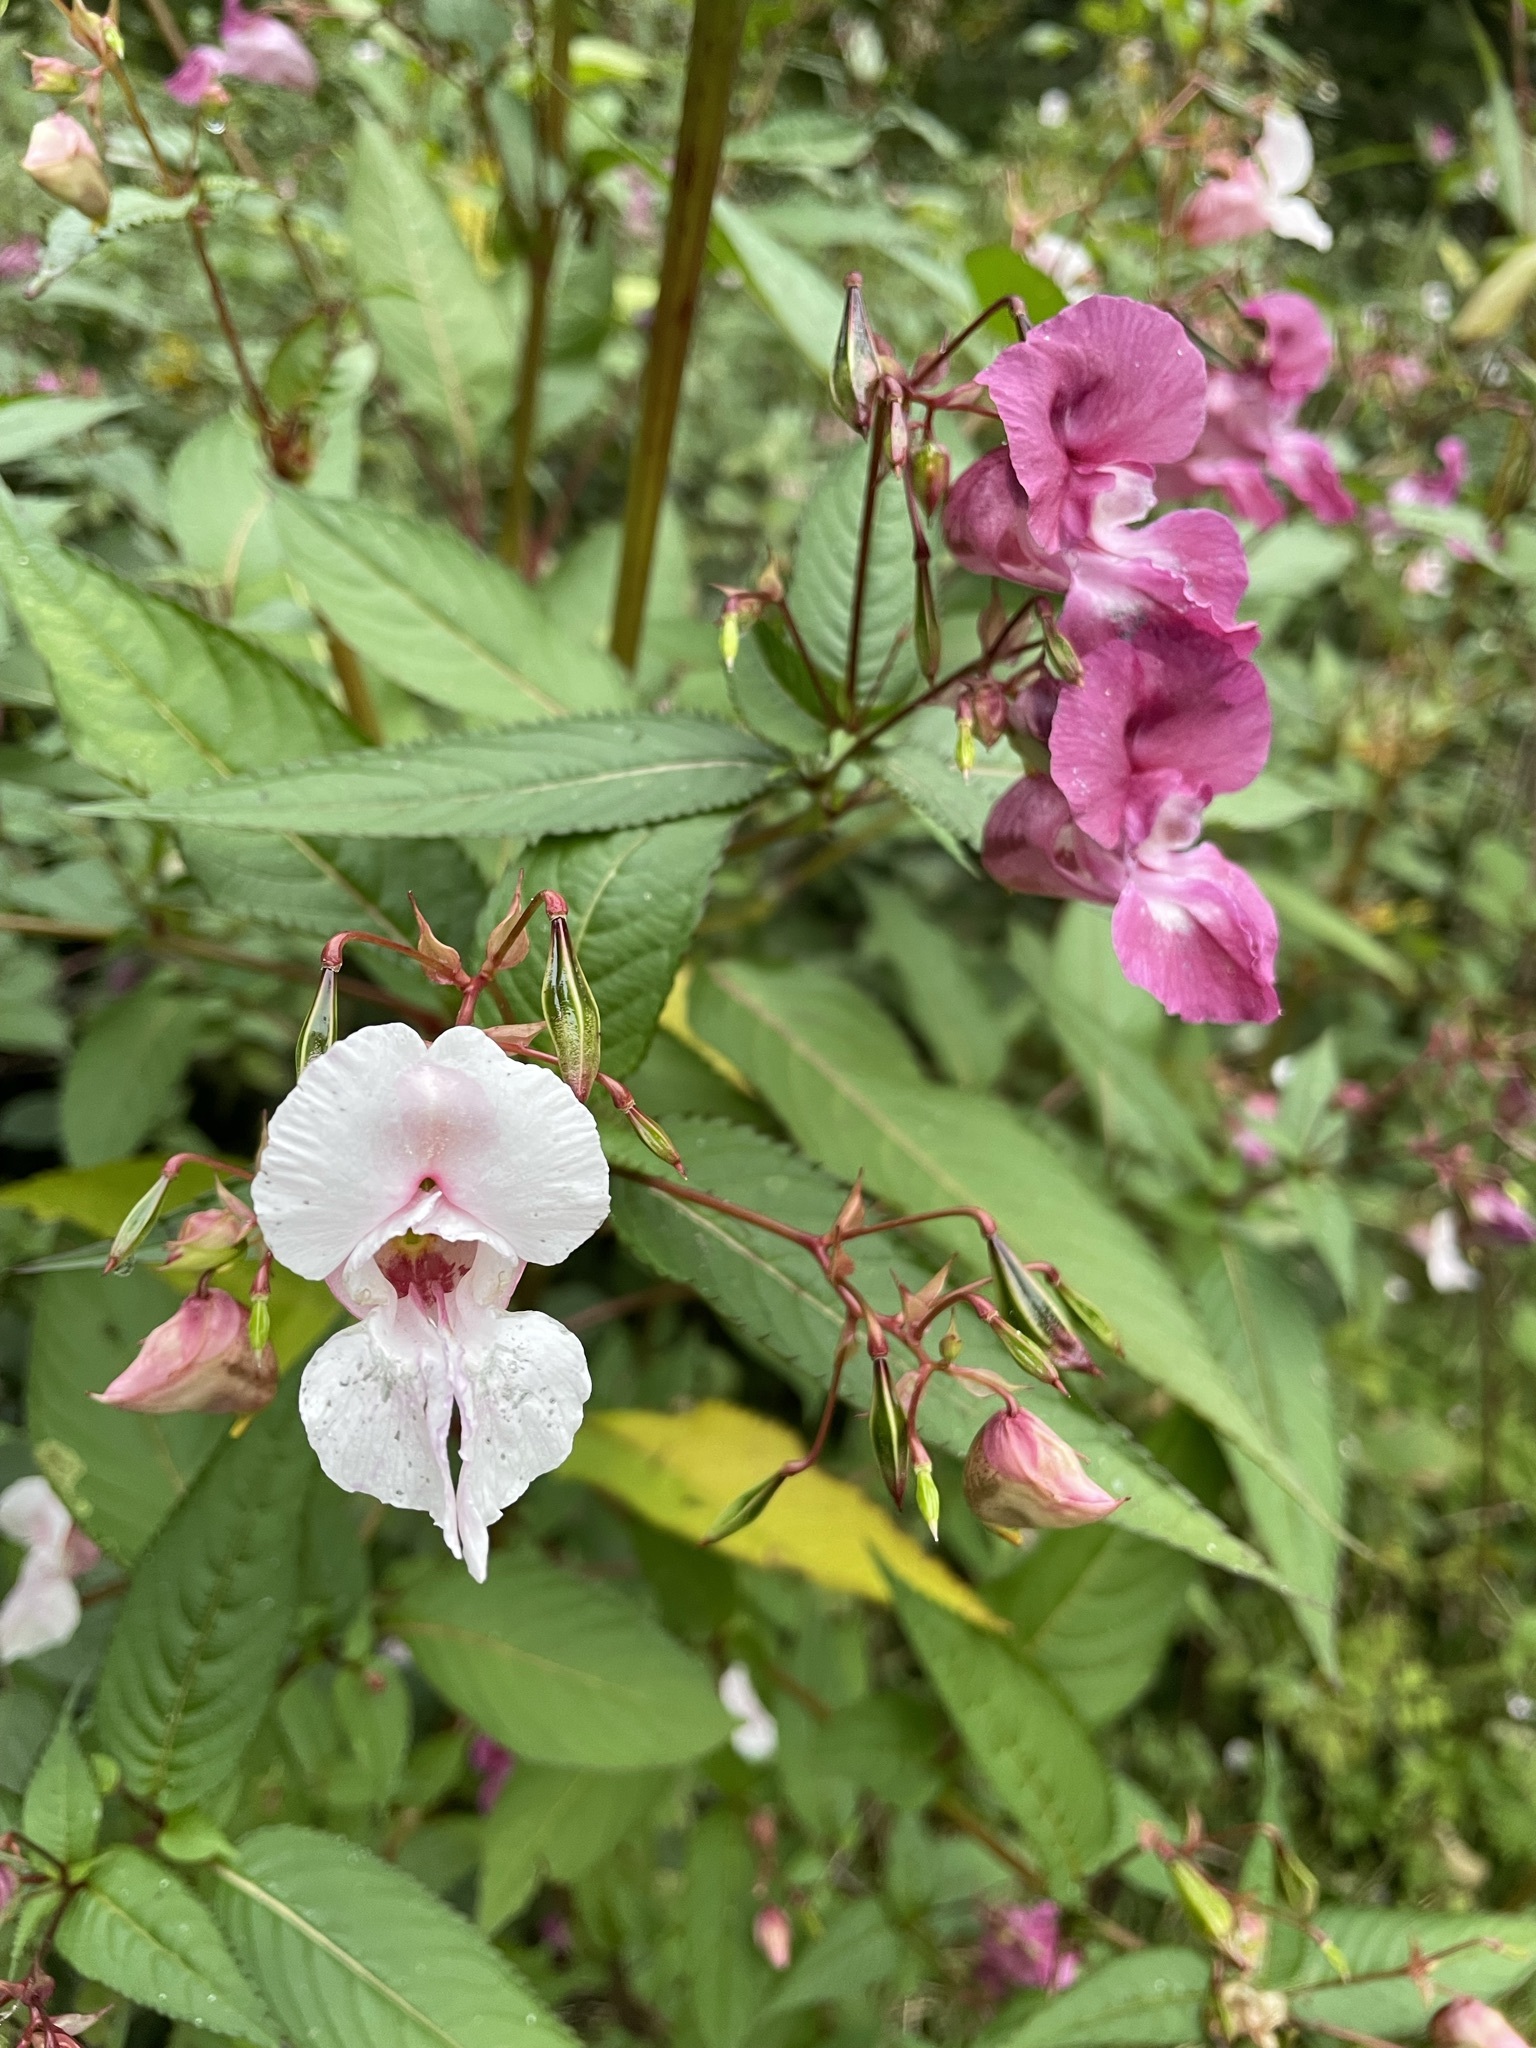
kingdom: Plantae
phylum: Tracheophyta
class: Magnoliopsida
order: Ericales
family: Balsaminaceae
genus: Impatiens
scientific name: Impatiens glandulifera
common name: Himalayan balsam
